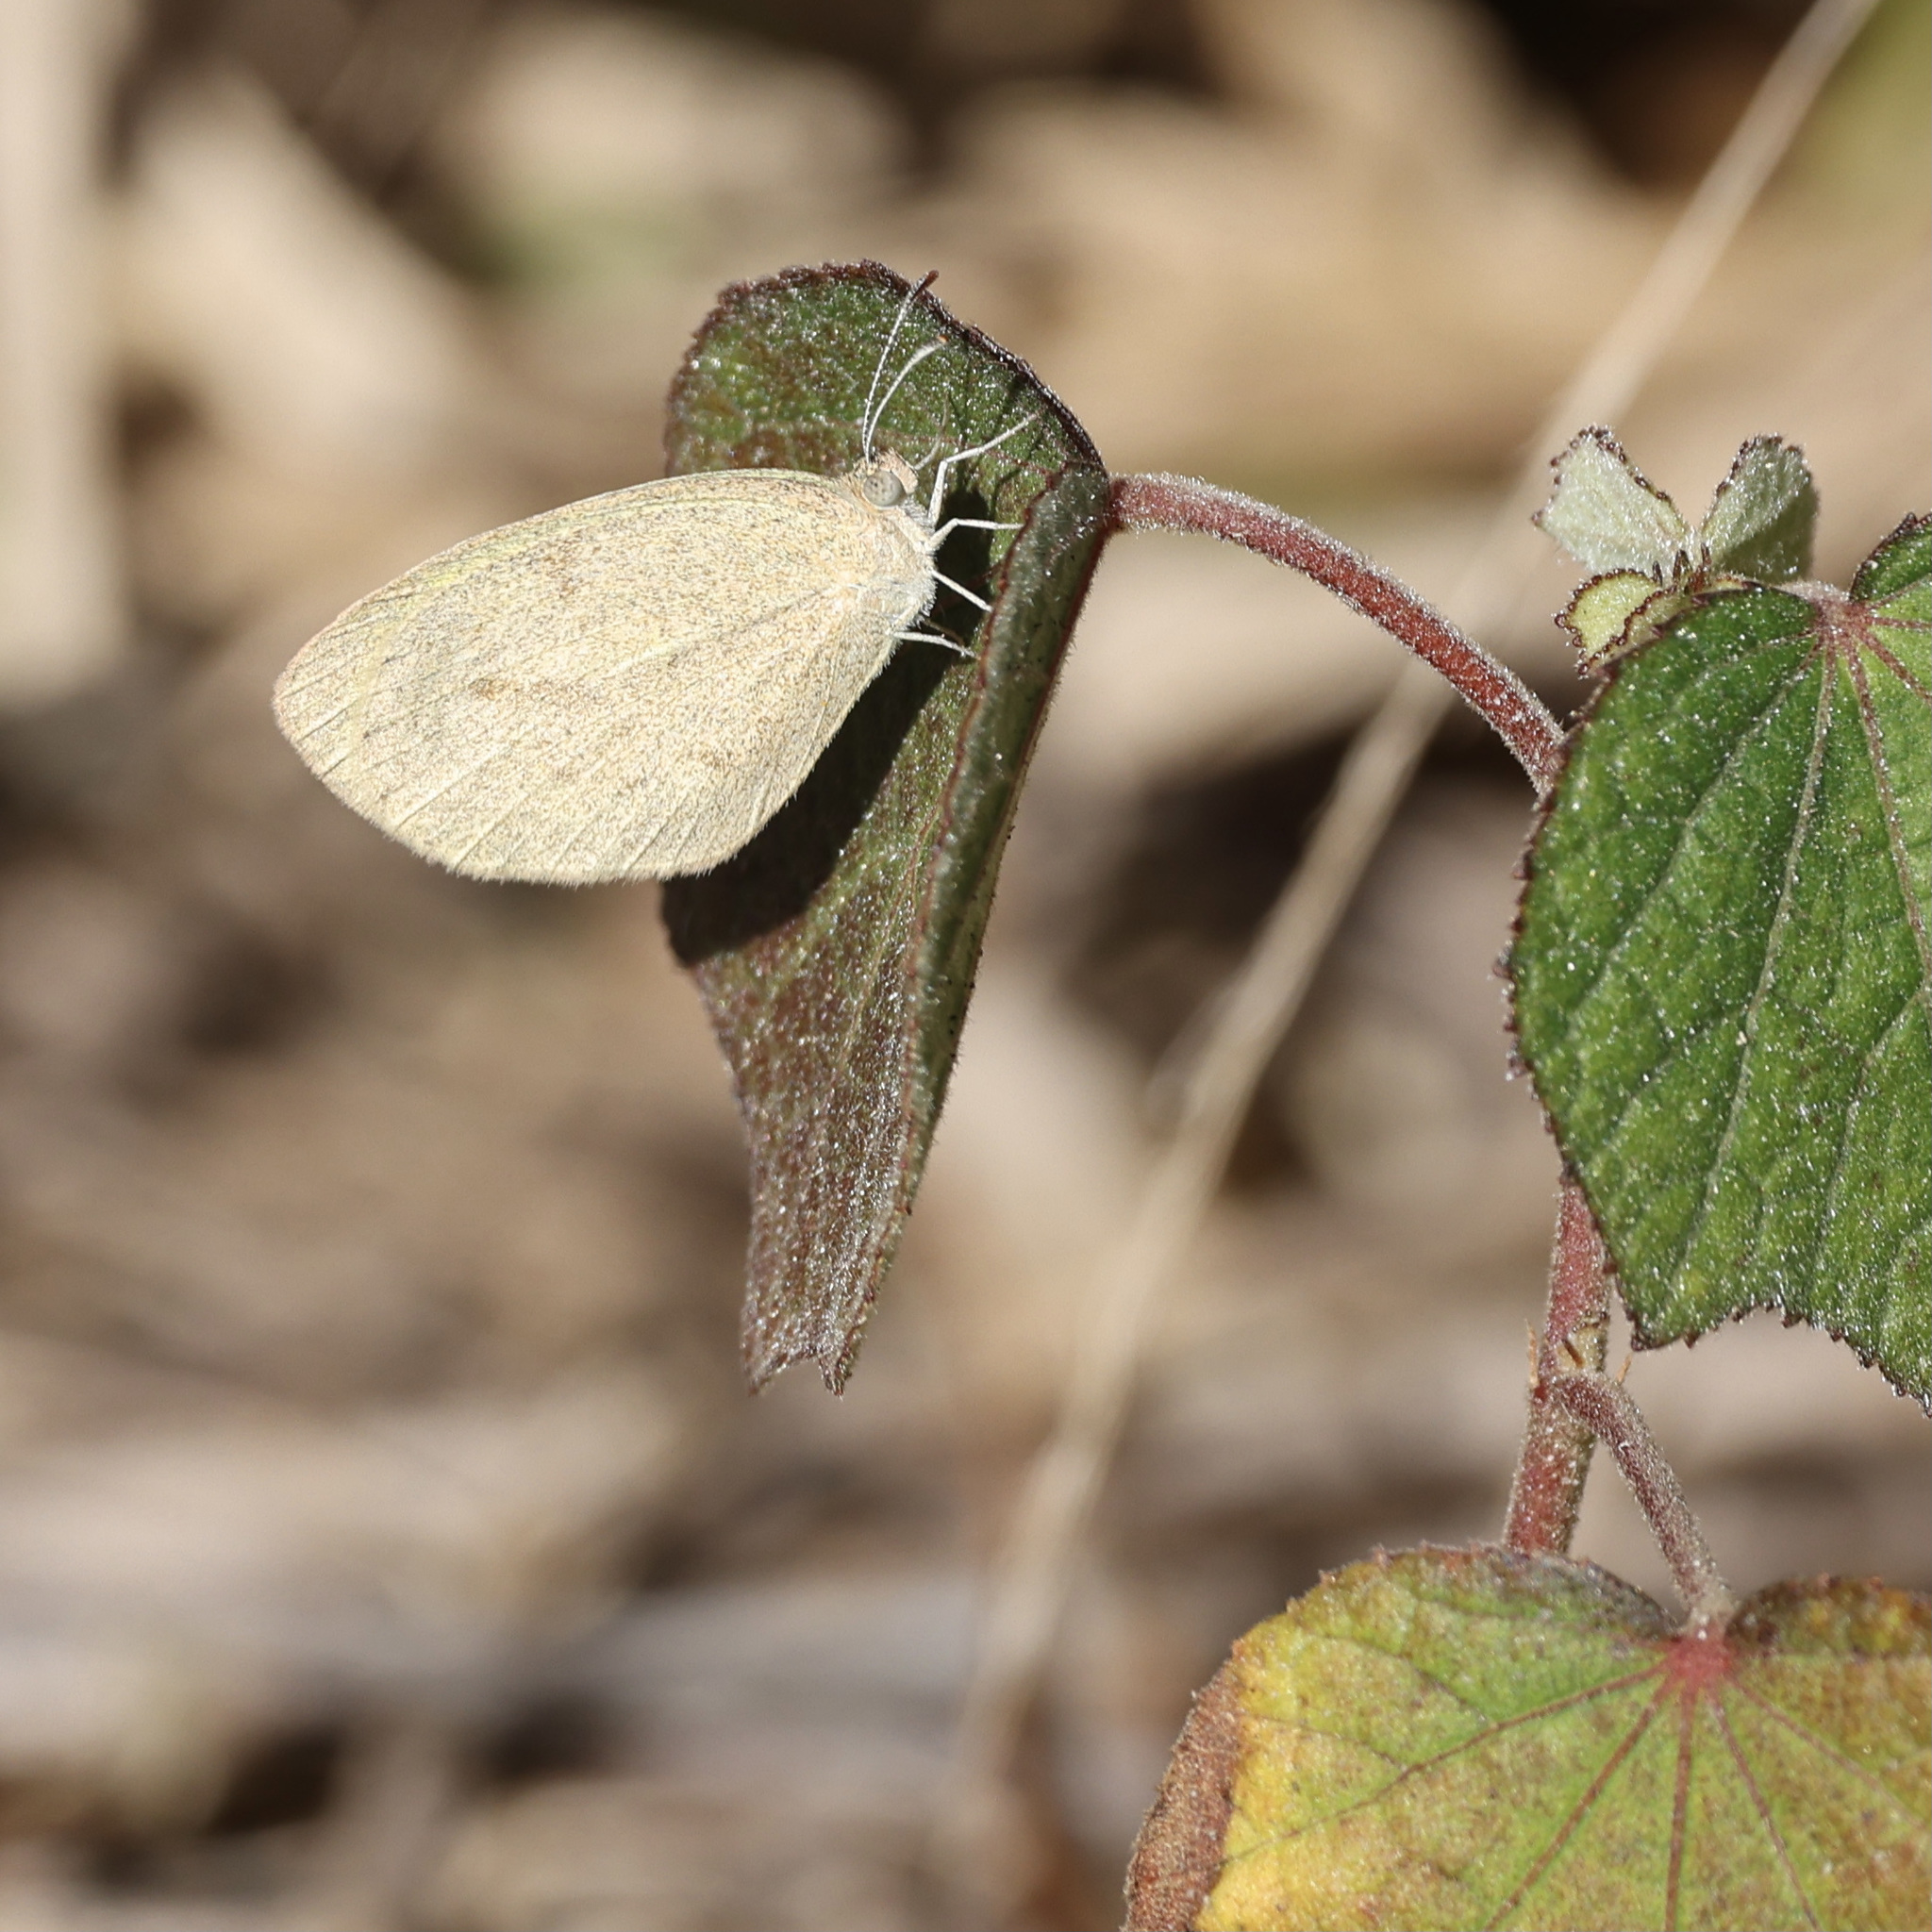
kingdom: Animalia
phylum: Arthropoda
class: Insecta
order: Lepidoptera
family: Pieridae
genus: Eurema
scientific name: Eurema daira
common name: Barred sulphur
